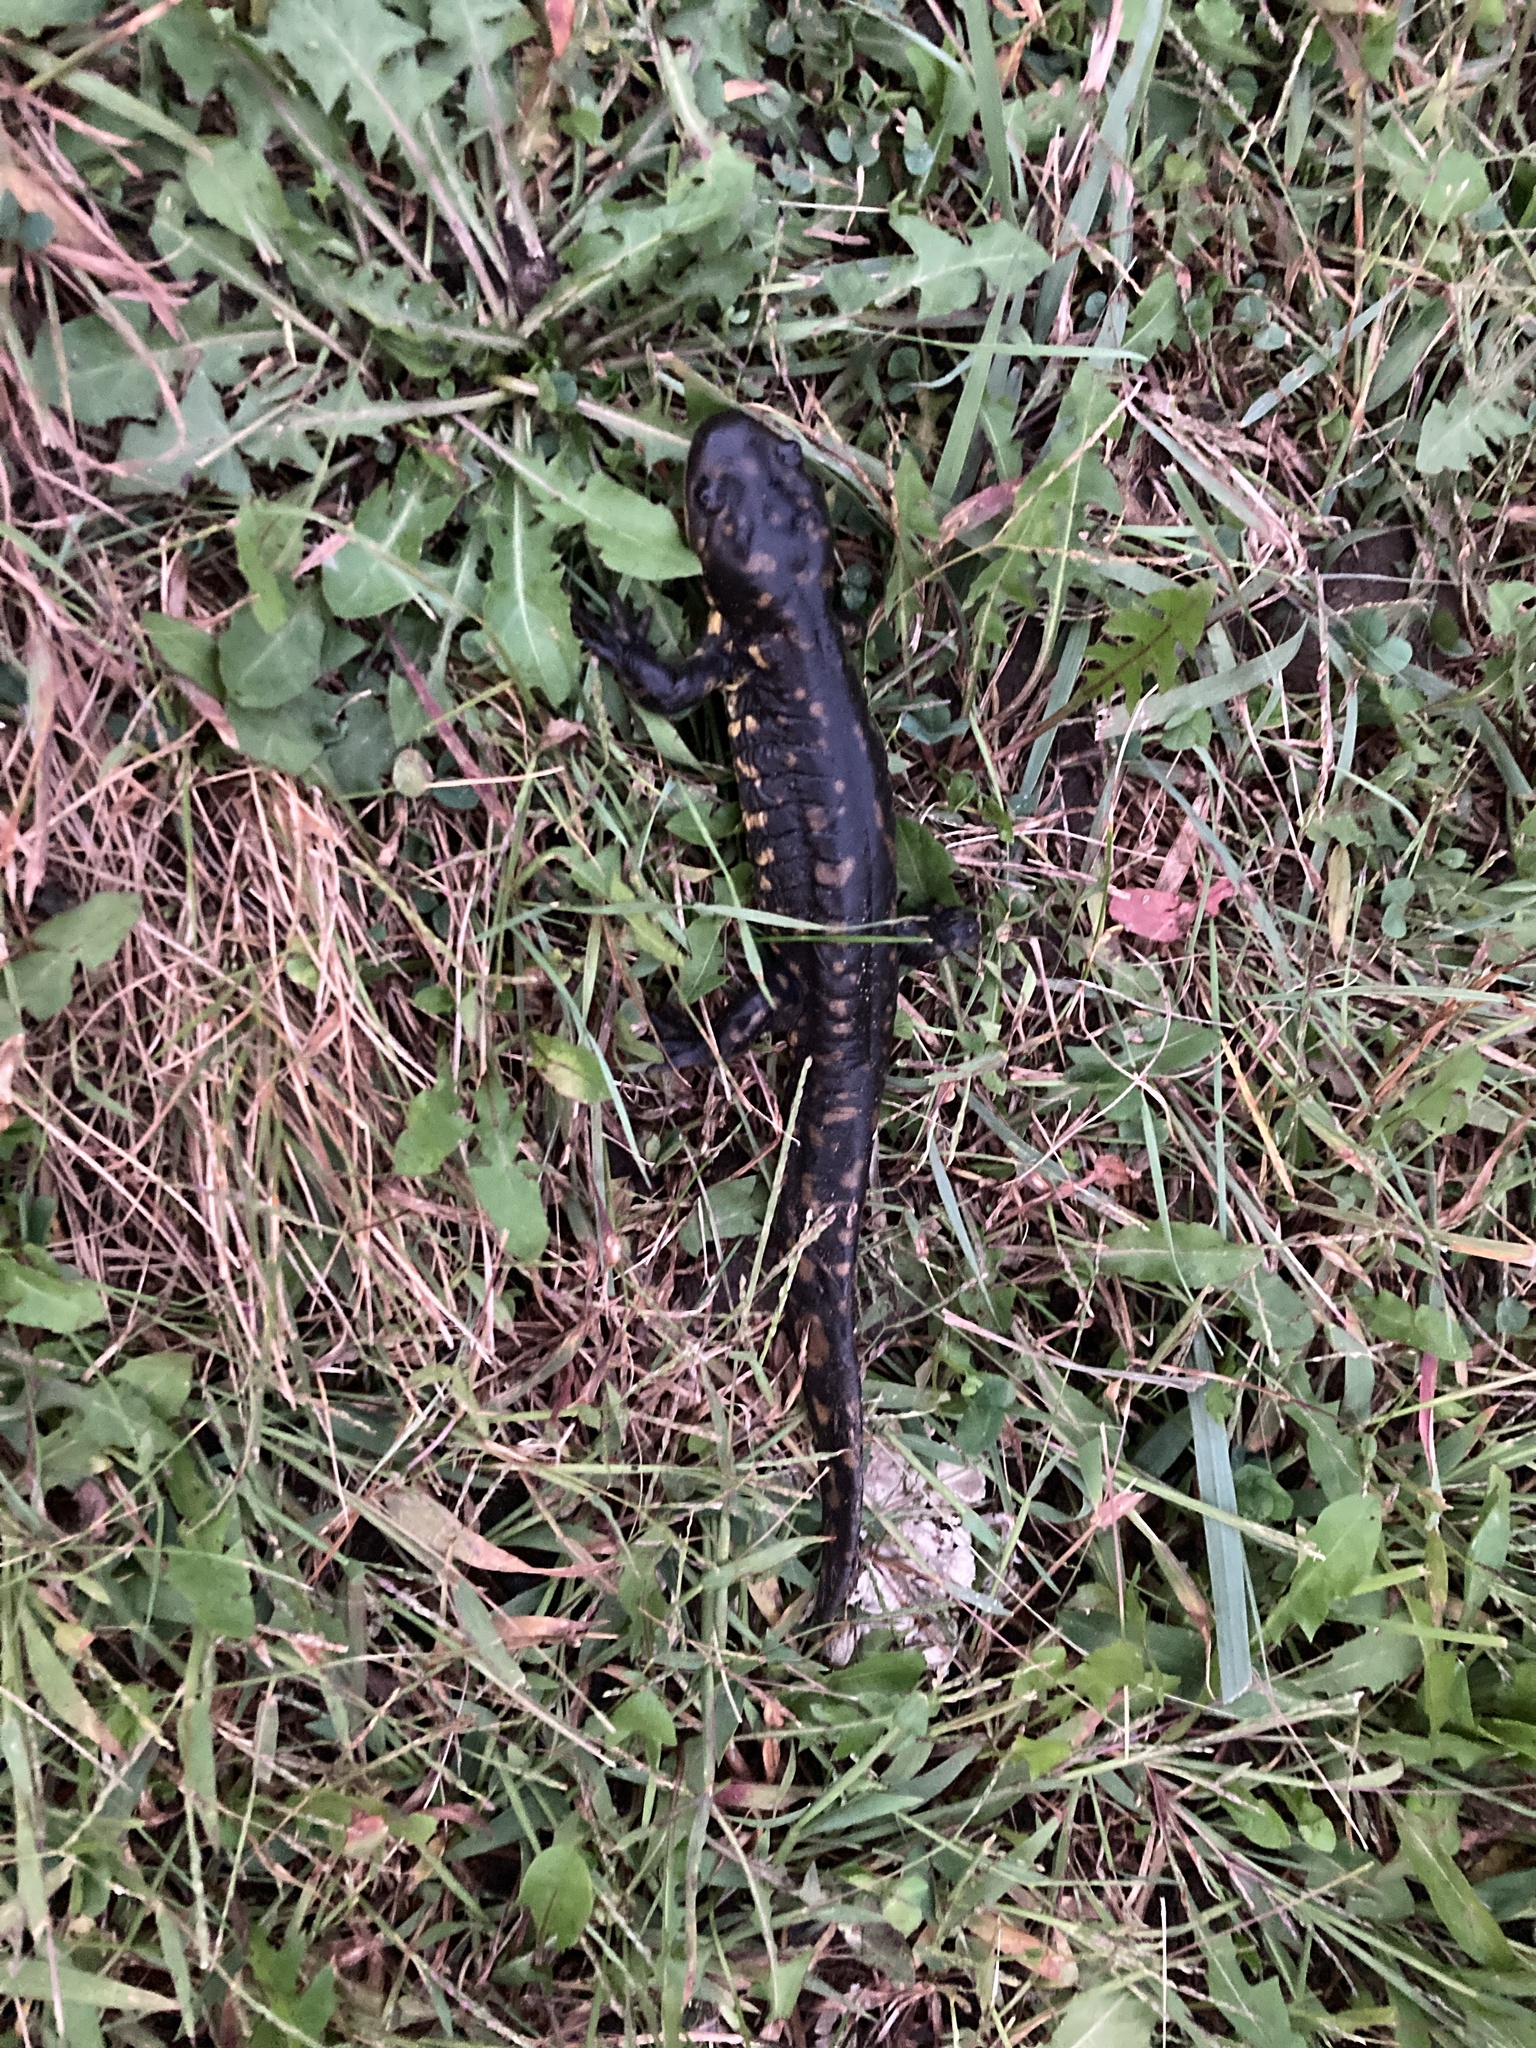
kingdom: Animalia
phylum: Chordata
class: Amphibia
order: Caudata
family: Ambystomatidae
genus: Ambystoma
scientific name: Ambystoma tigrinum
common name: Tiger salamander
